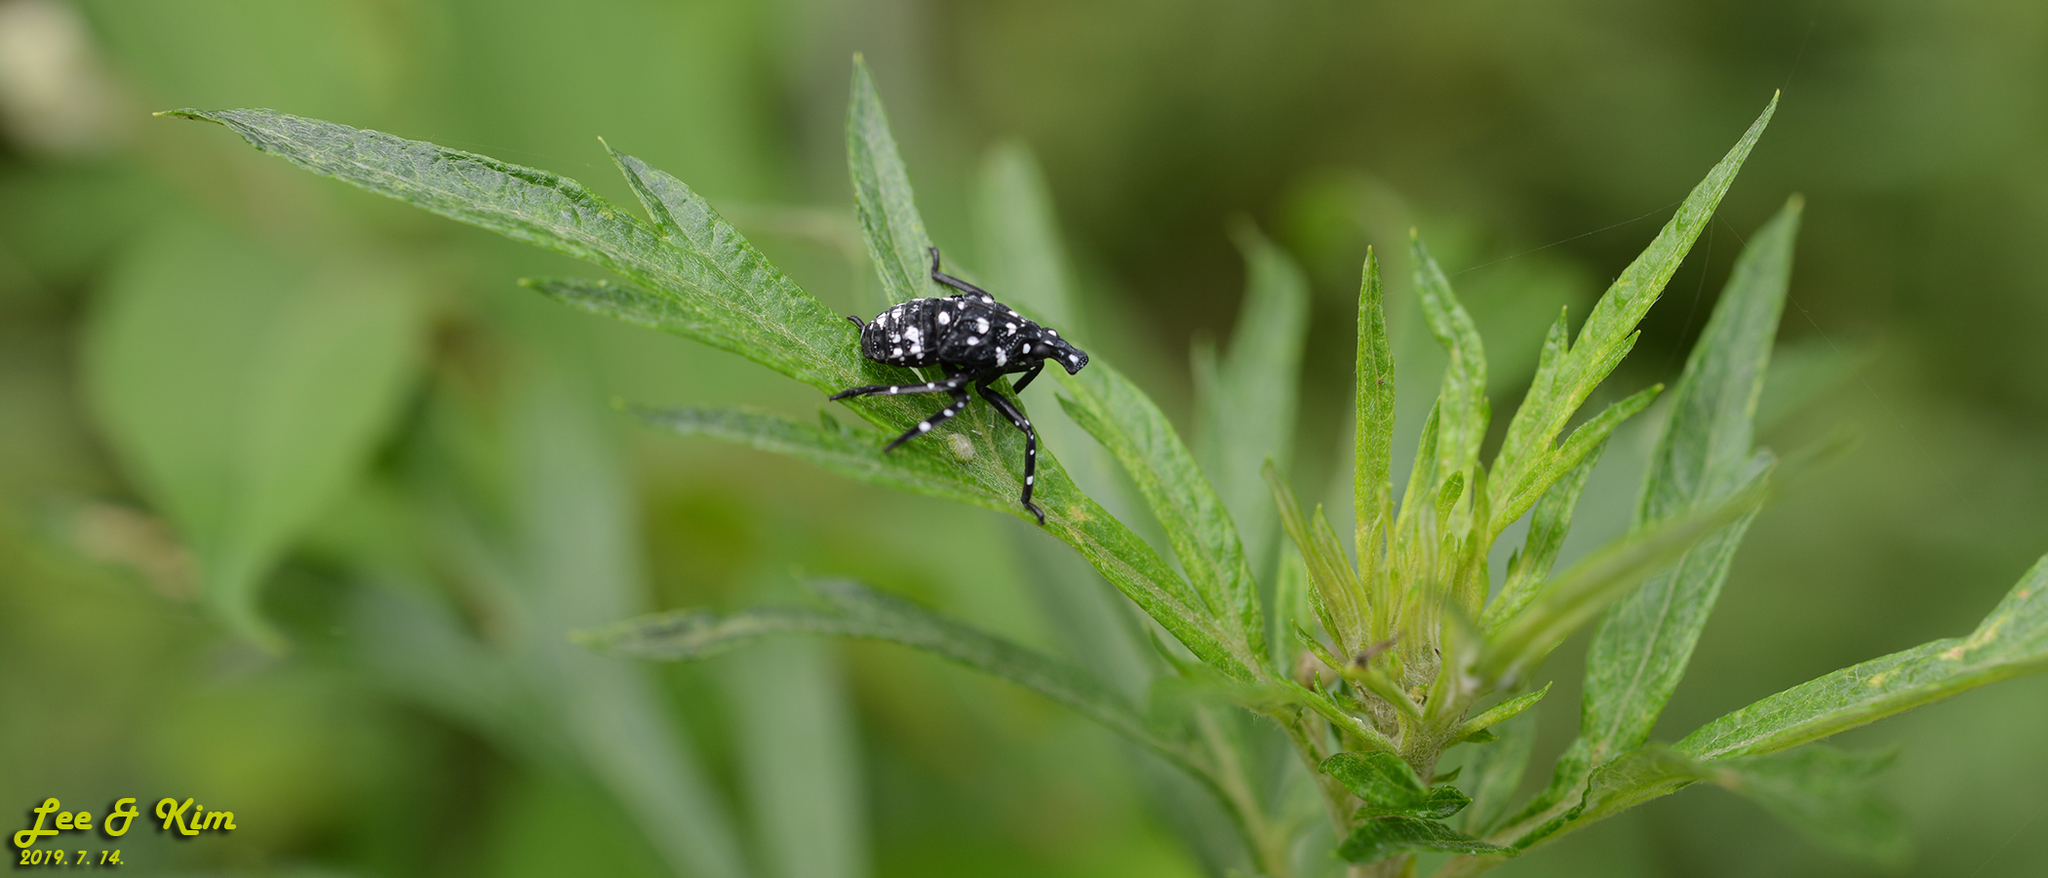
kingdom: Animalia
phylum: Arthropoda
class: Insecta
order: Hemiptera
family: Fulgoridae
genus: Lycorma
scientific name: Lycorma delicatula
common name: Spotted lanternfly
